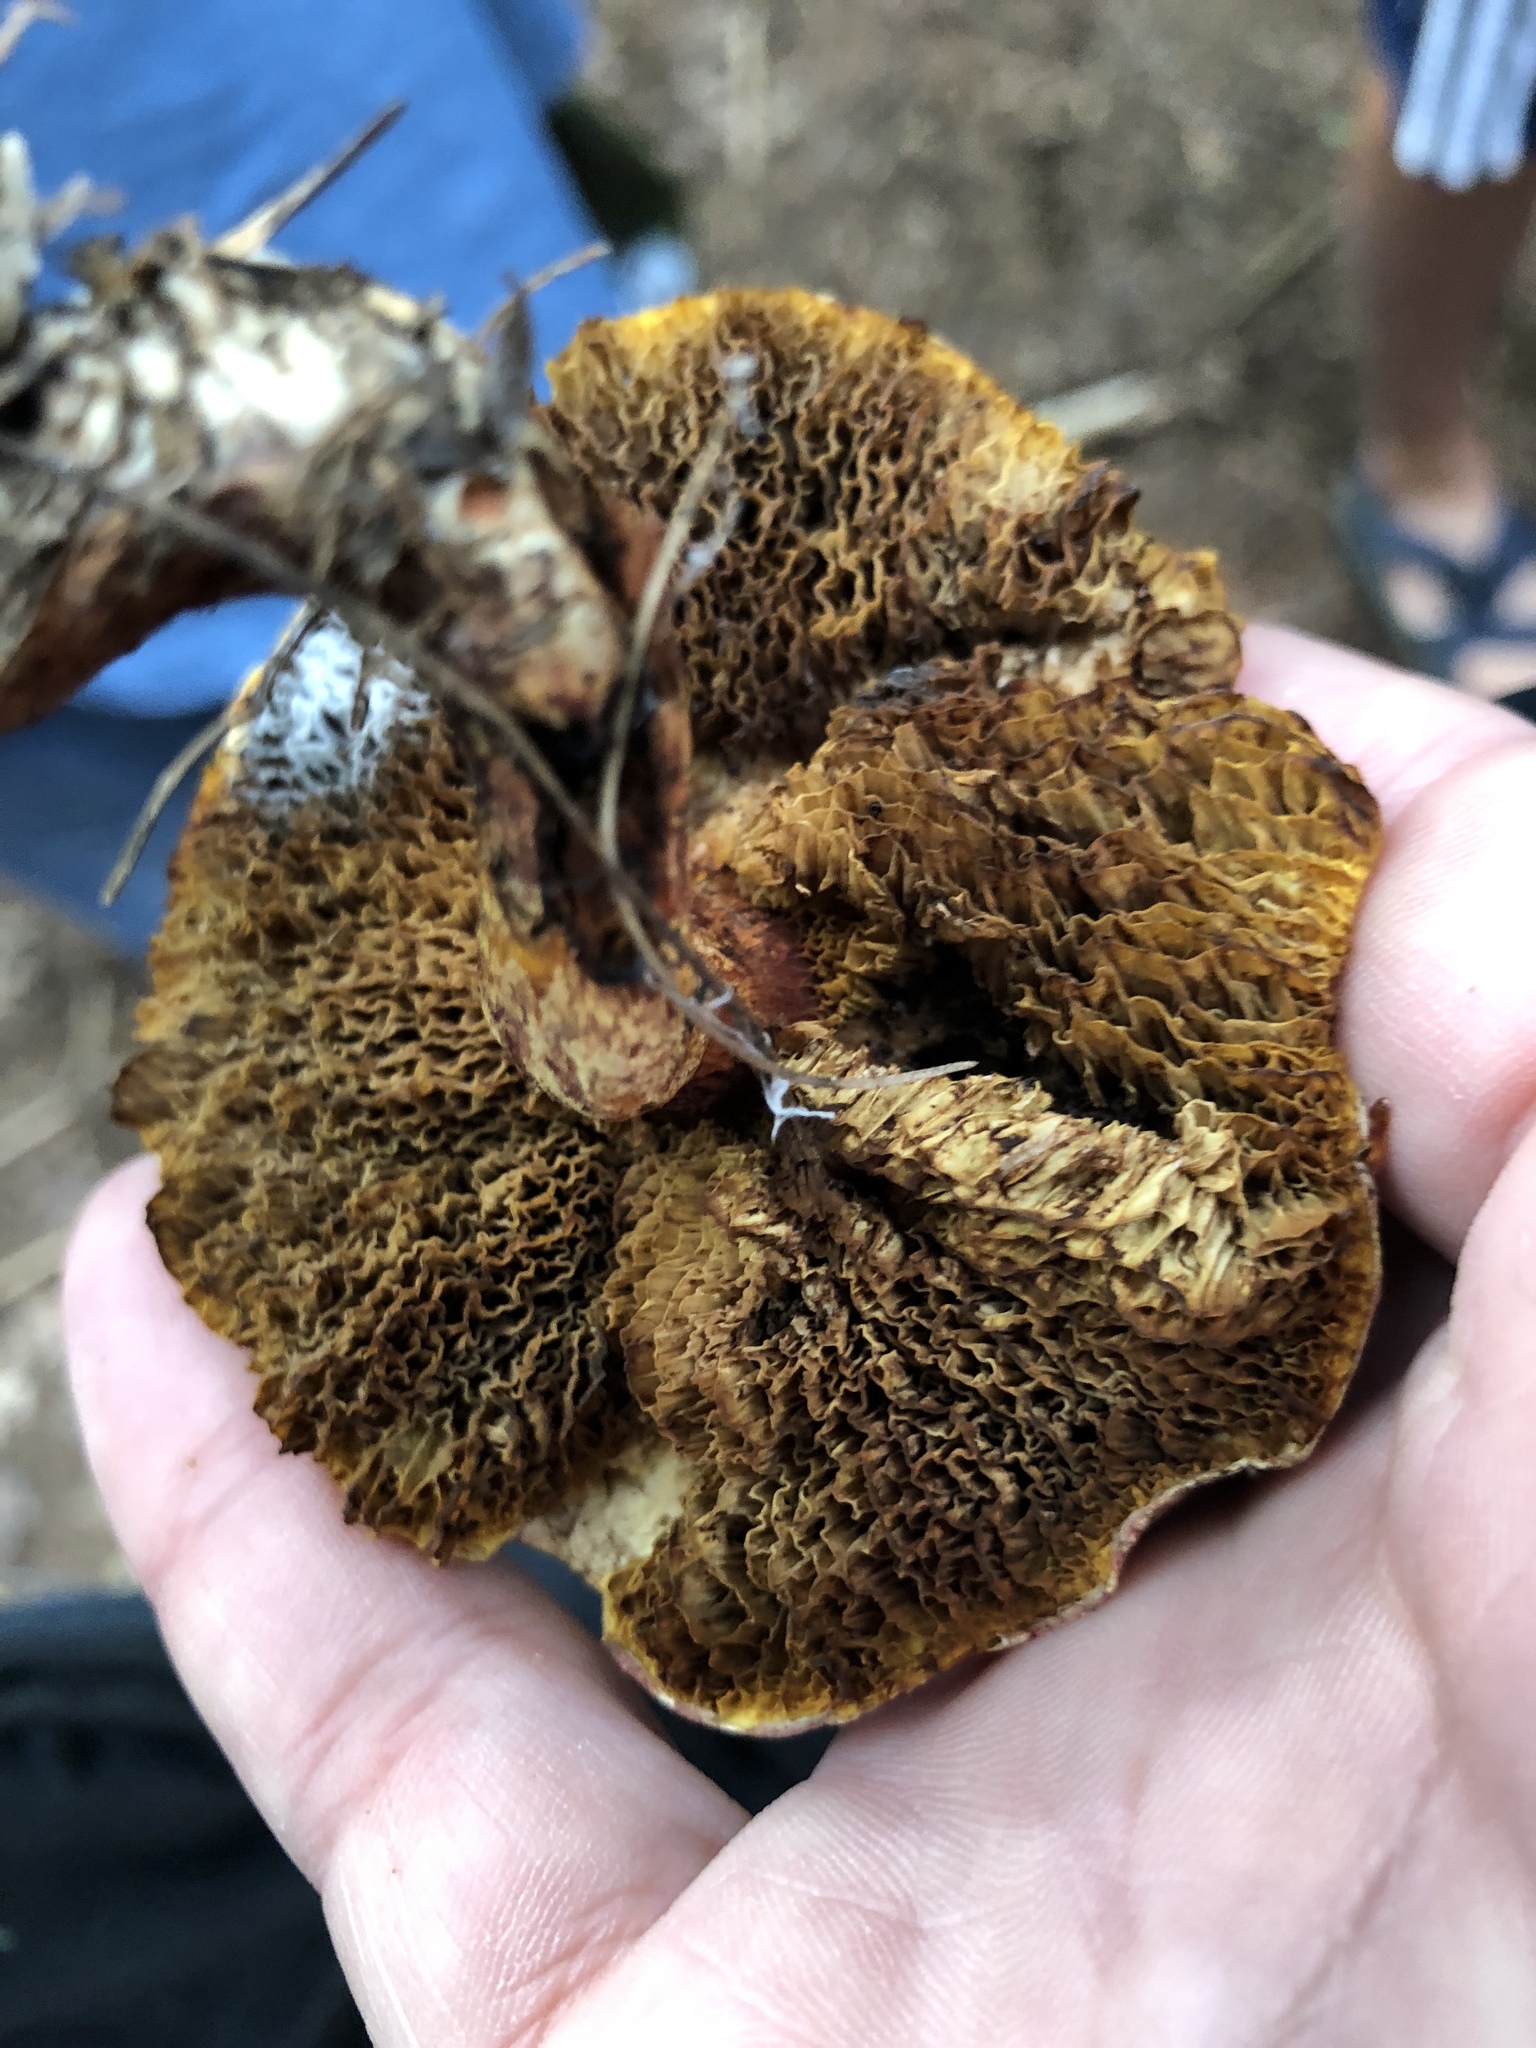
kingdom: Fungi
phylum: Basidiomycota
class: Agaricomycetes
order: Boletales
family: Suillaceae
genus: Suillus
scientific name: Suillus spraguei
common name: Painted suillus
